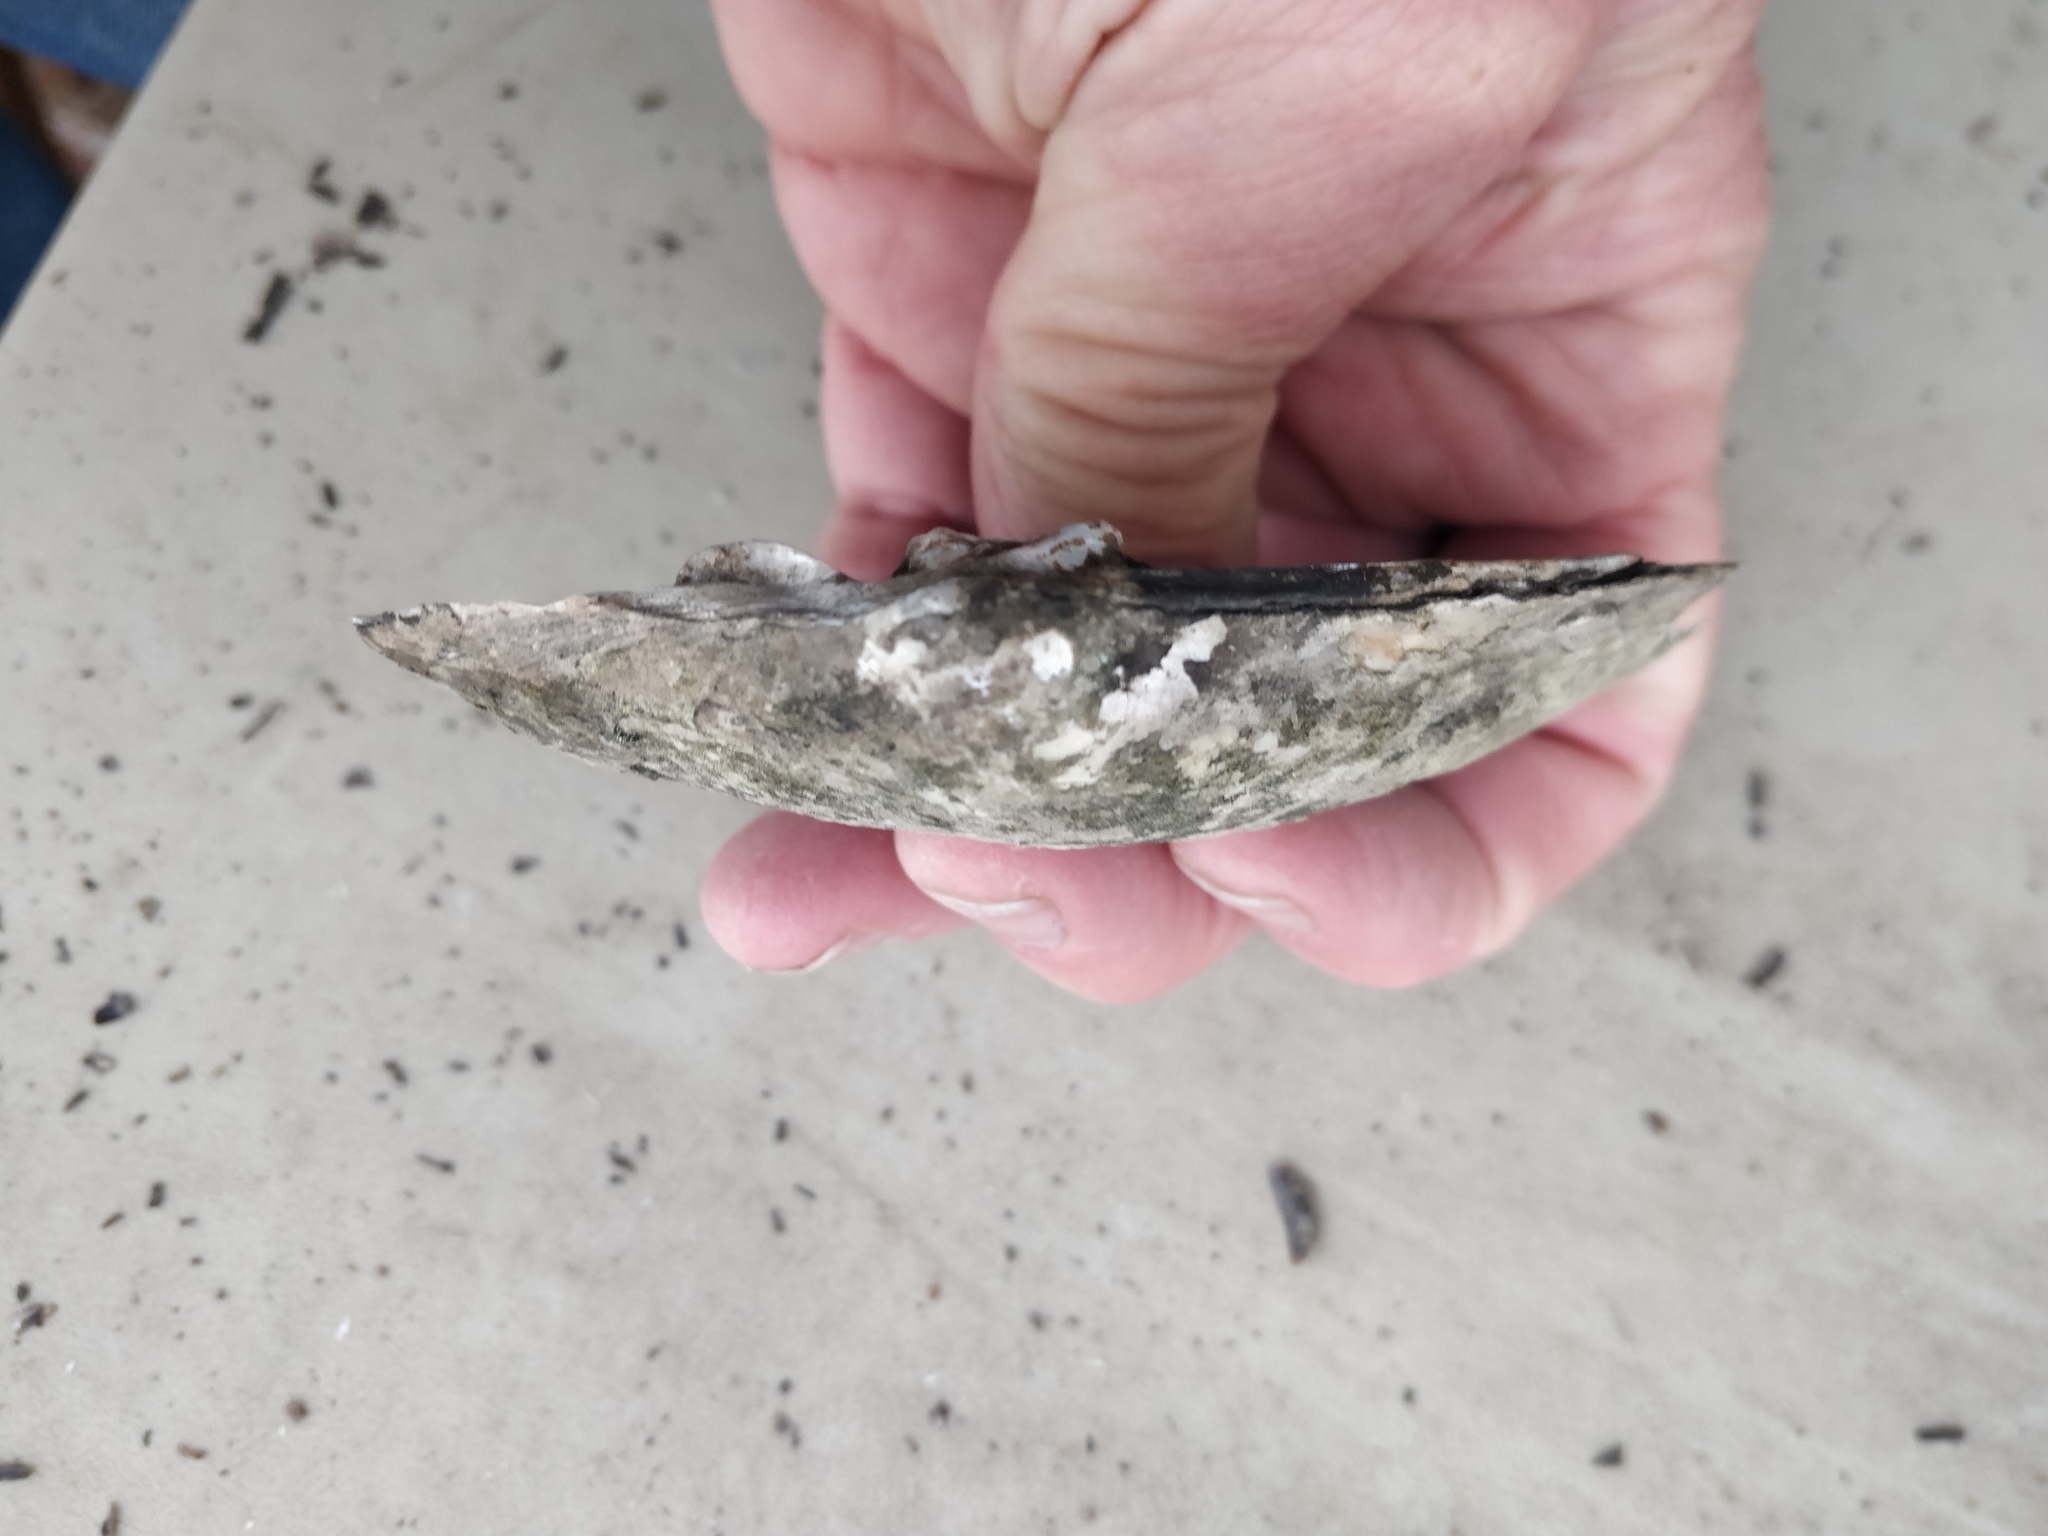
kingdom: Animalia
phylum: Mollusca
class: Bivalvia
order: Unionida
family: Unionidae
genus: Lasmigona
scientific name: Lasmigona complanata
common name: White heelsplitter
